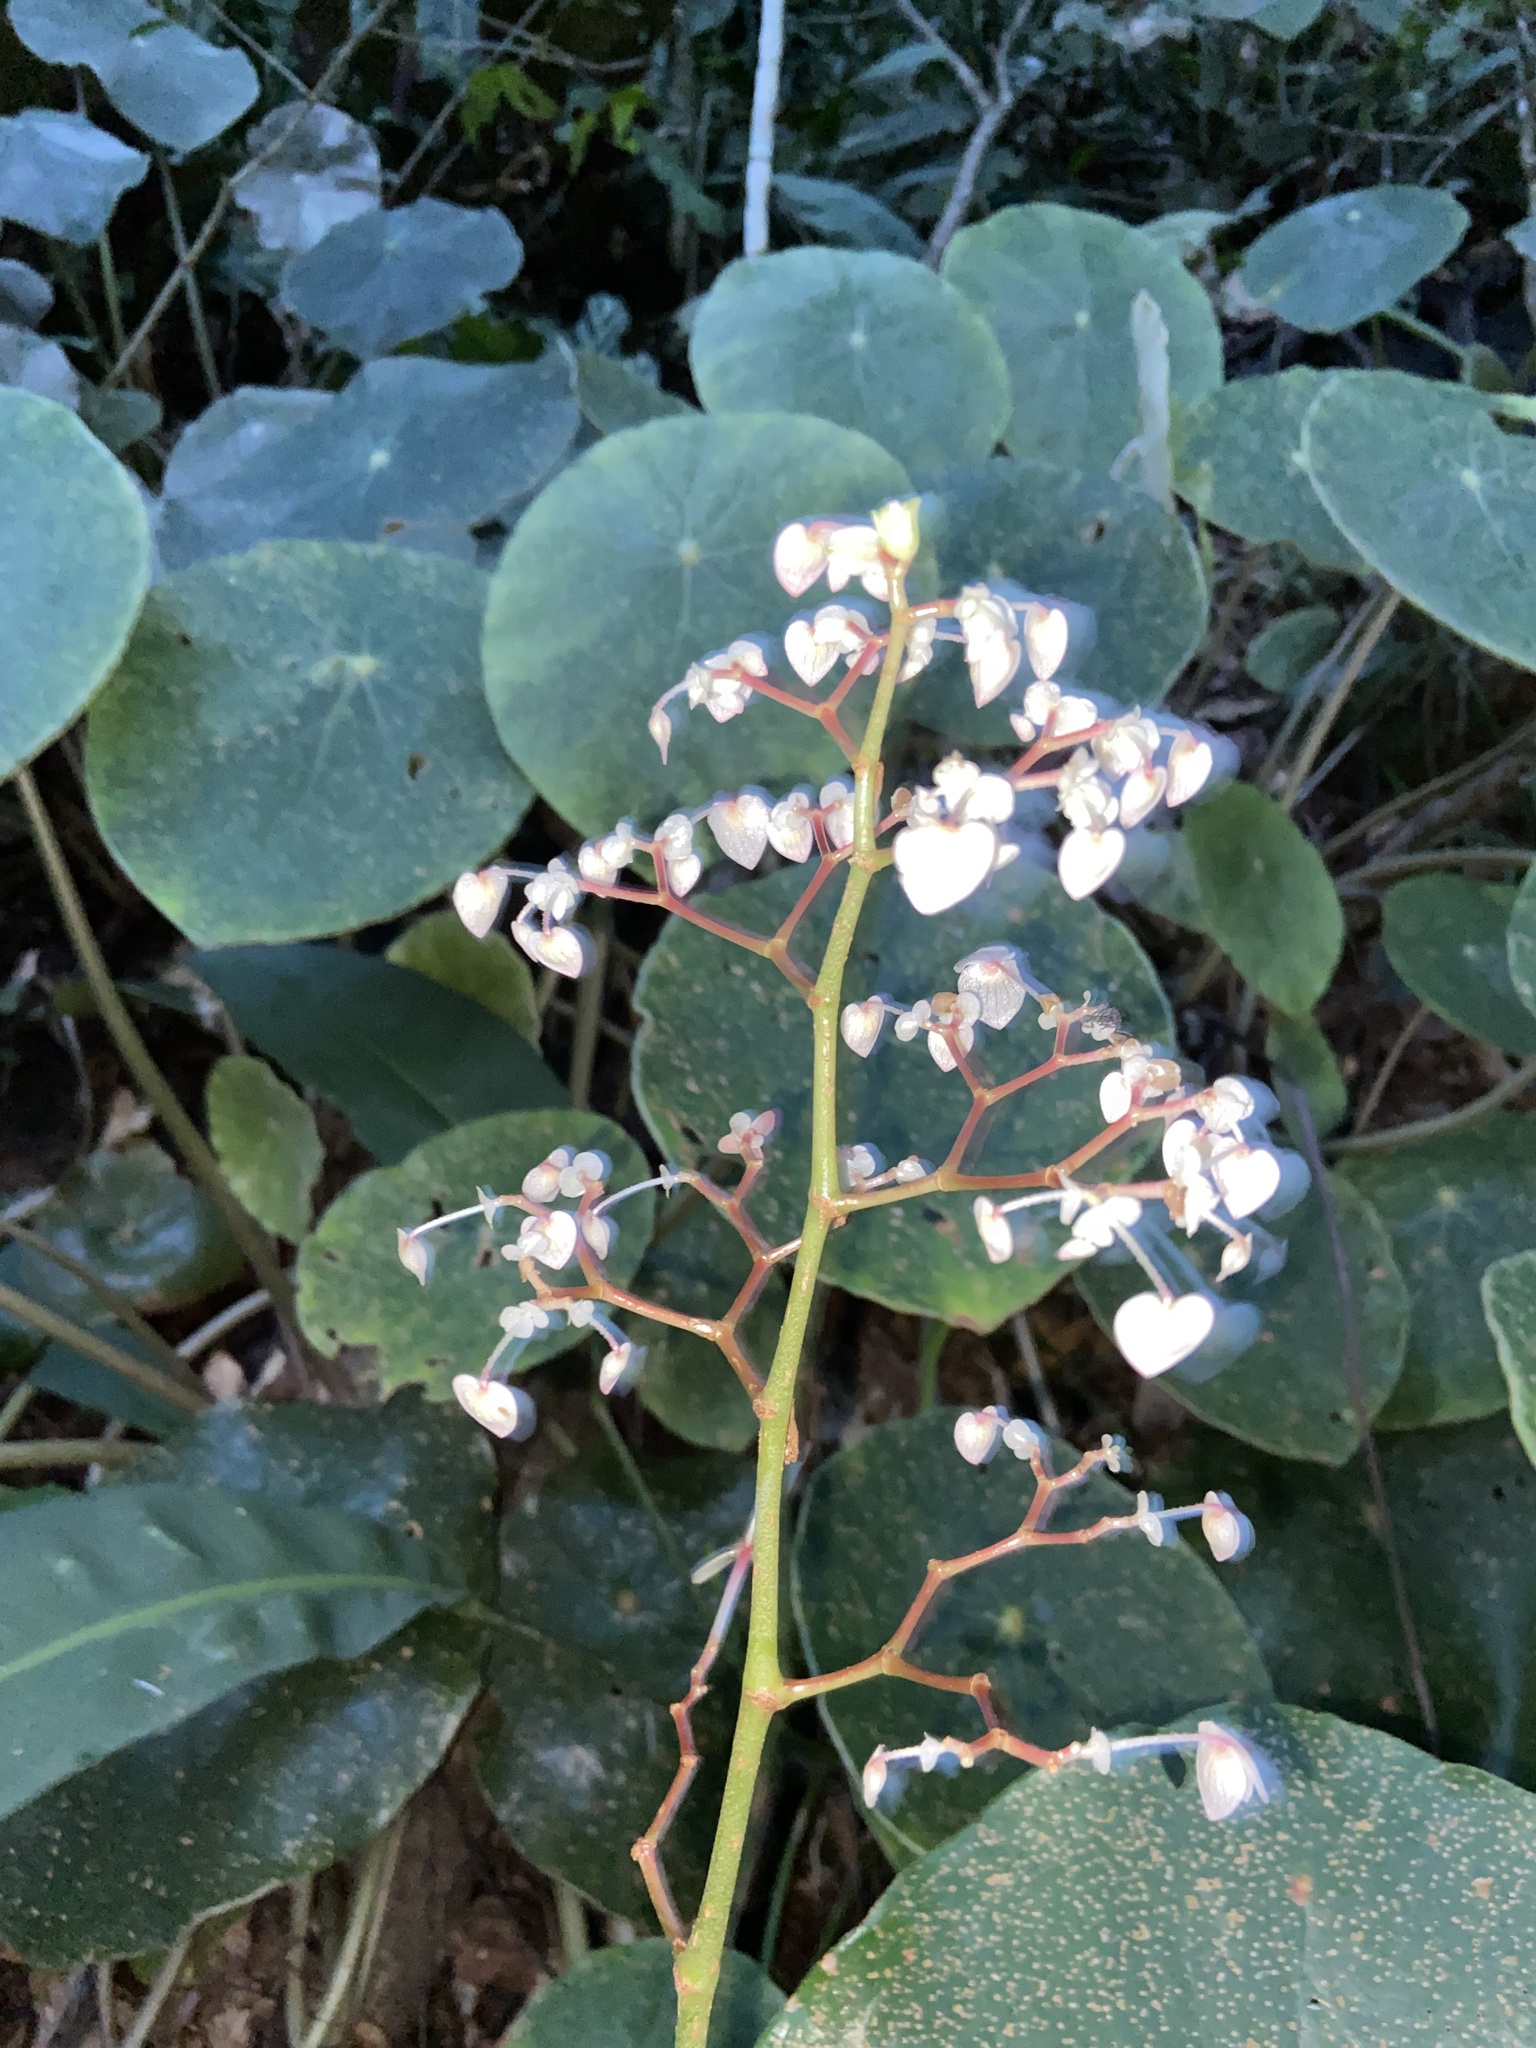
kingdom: Plantae
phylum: Tracheophyta
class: Magnoliopsida
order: Cucurbitales
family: Begoniaceae
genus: Begonia
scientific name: Begonia santos-limae
